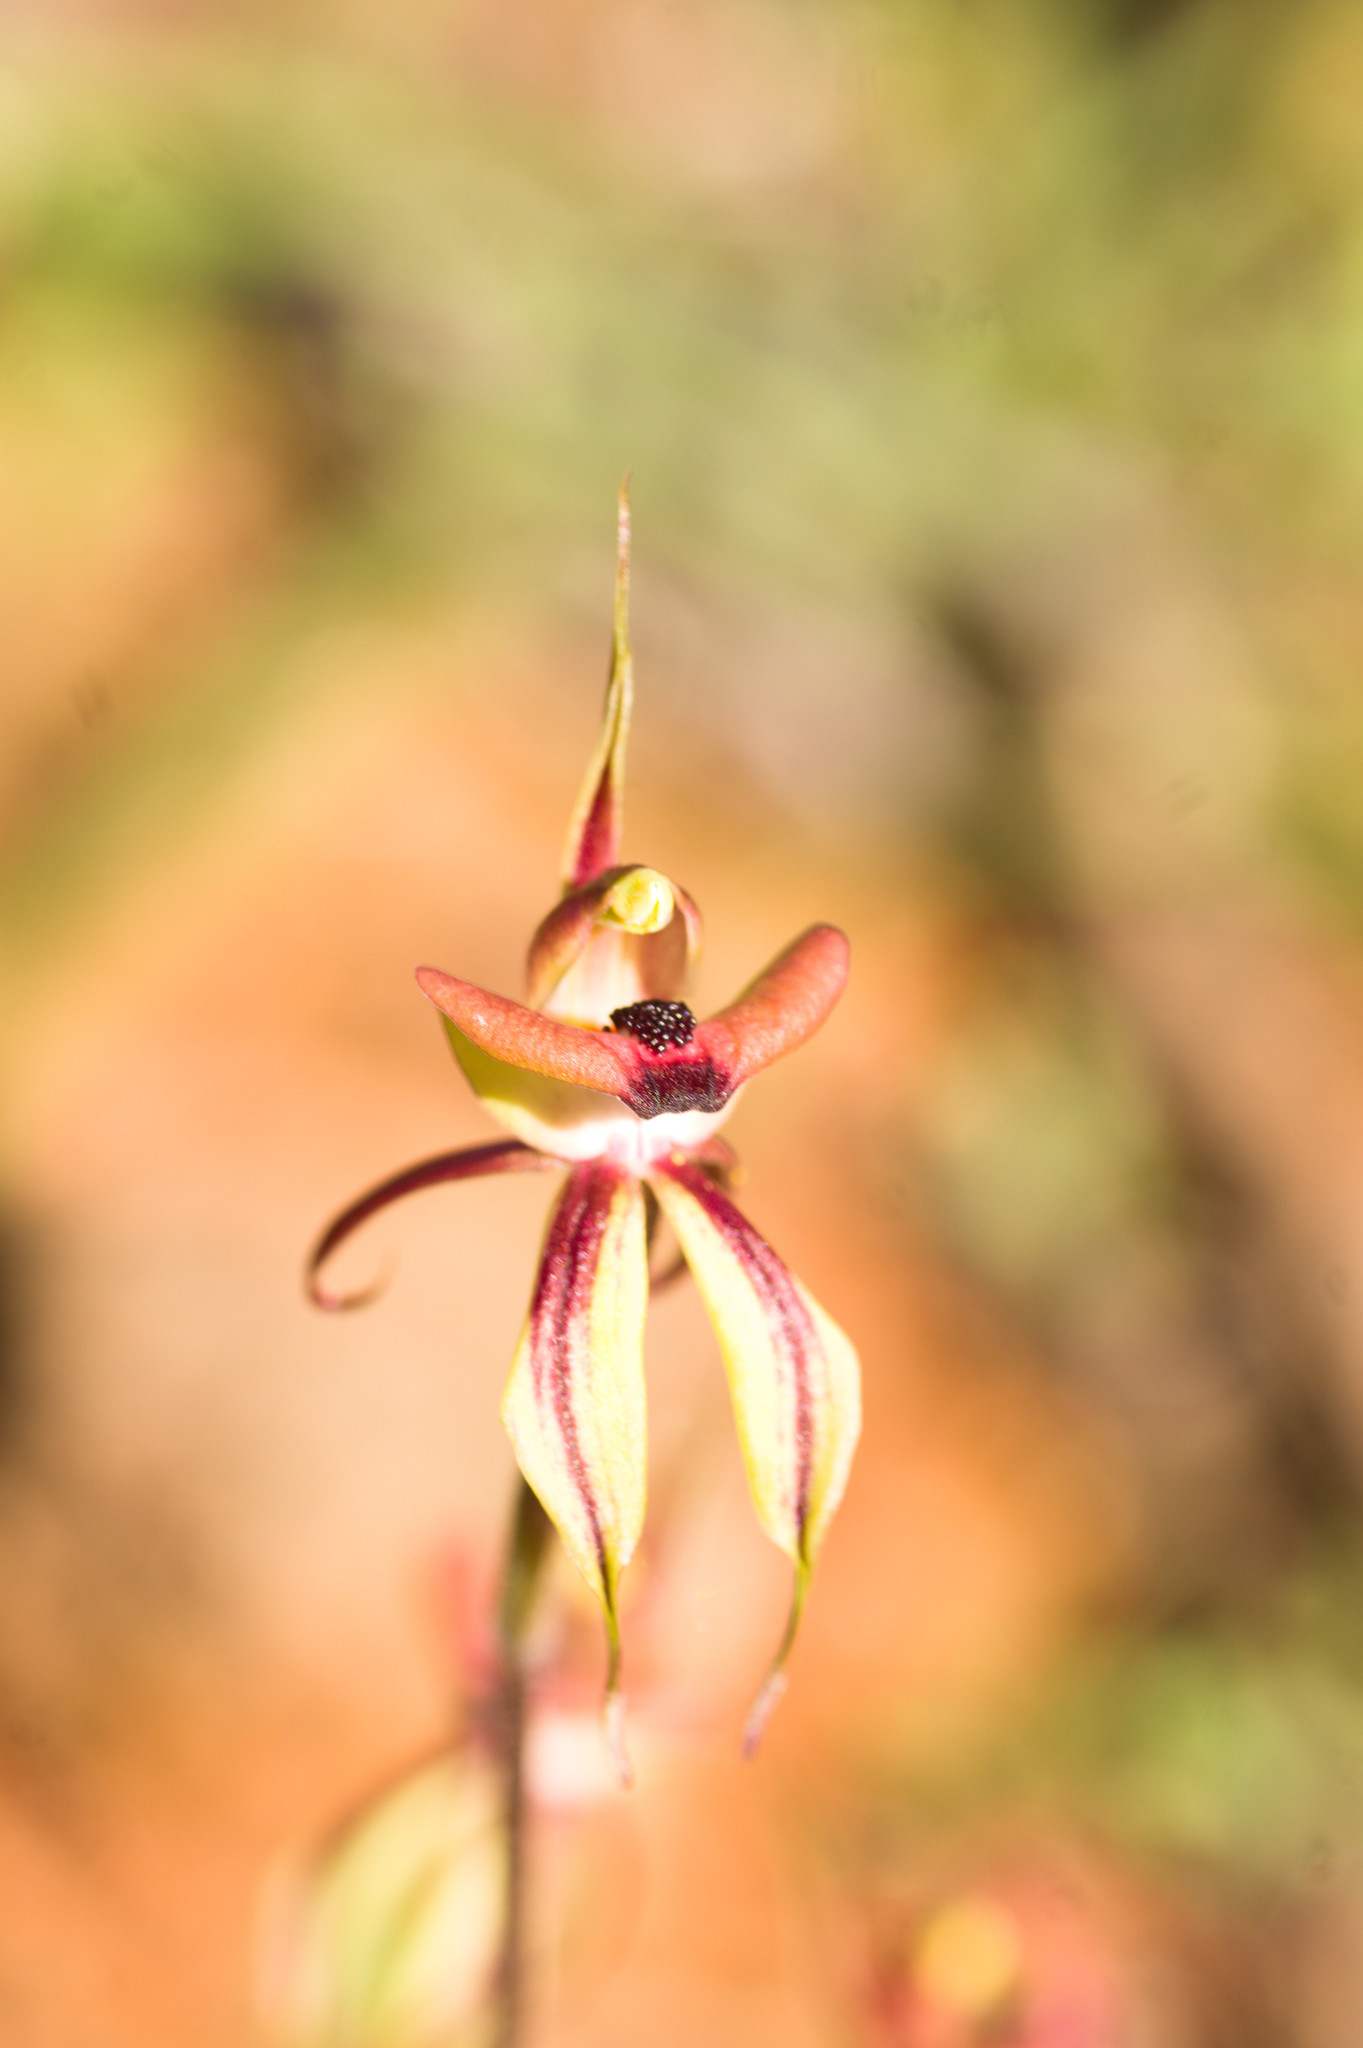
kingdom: Plantae
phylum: Tracheophyta
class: Liliopsida
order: Asparagales
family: Orchidaceae
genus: Caladenia
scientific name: Caladenia doutchiae
